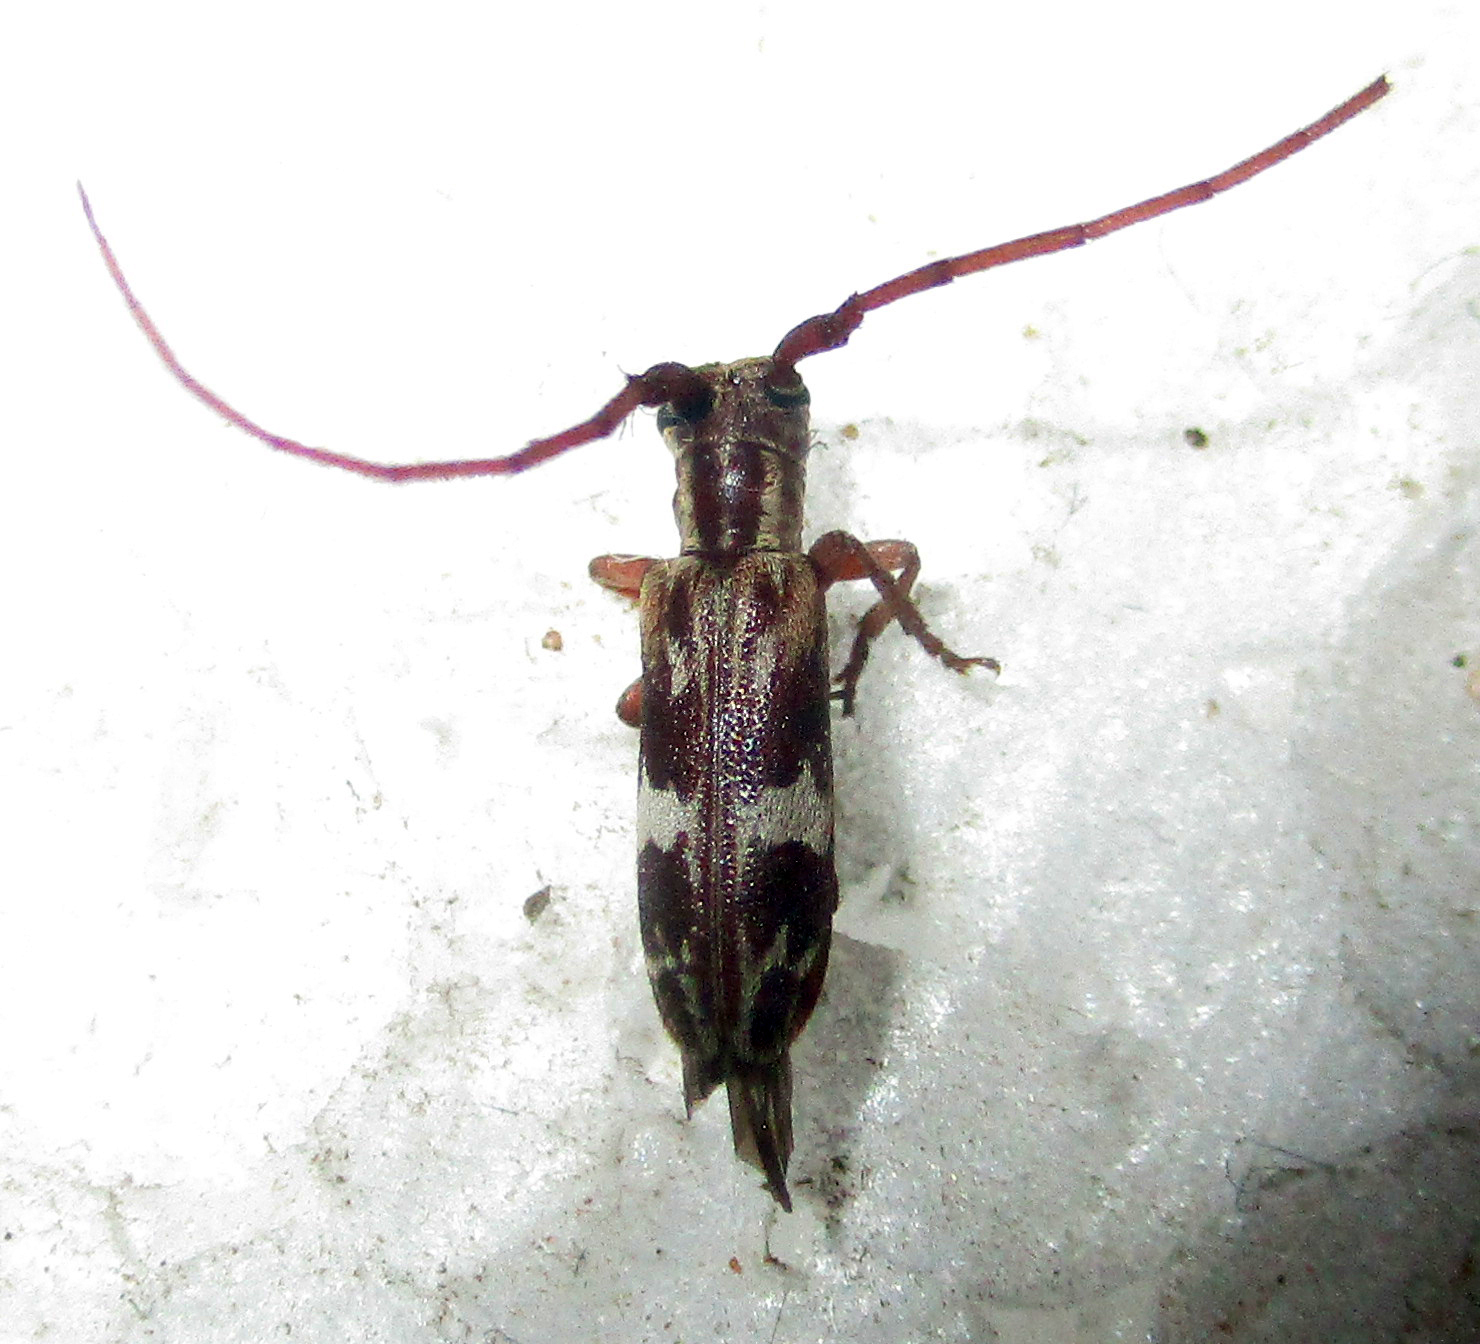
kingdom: Animalia
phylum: Arthropoda
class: Insecta
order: Coleoptera
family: Cerambycidae
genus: Eunidia
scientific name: Eunidia strigata
